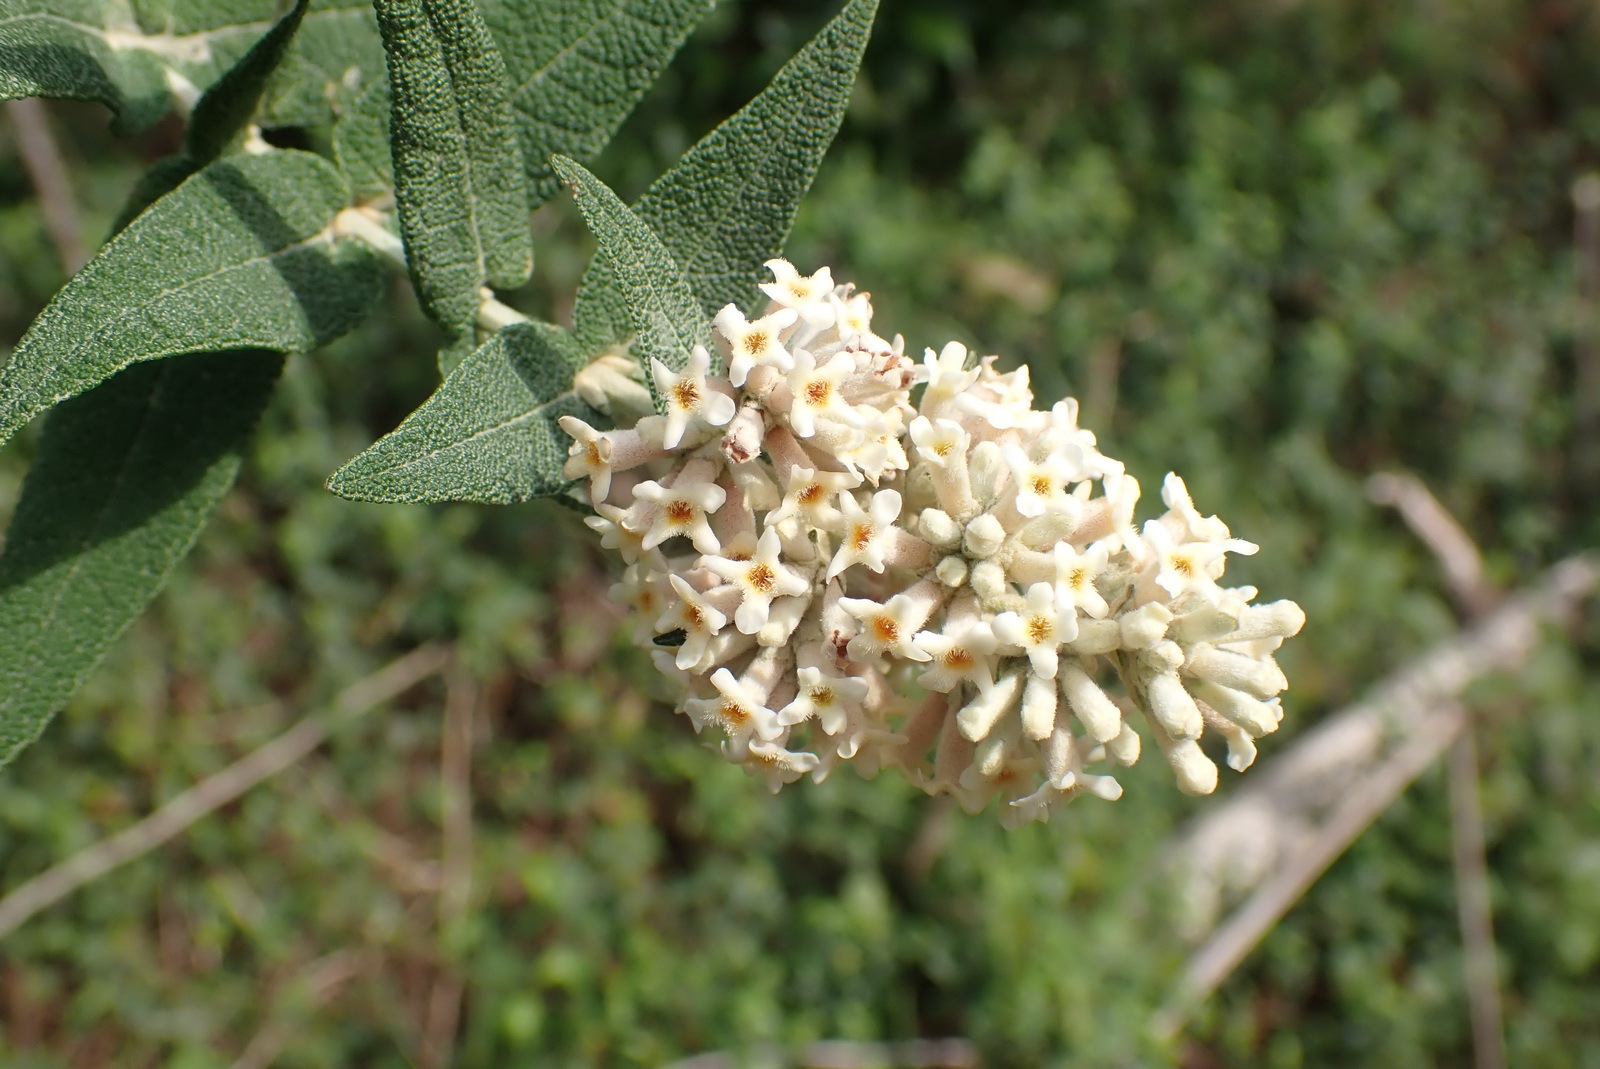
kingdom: Plantae
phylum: Tracheophyta
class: Magnoliopsida
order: Lamiales
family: Scrophulariaceae
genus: Buddleja
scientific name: Buddleja salviifolia
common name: Sagewood
